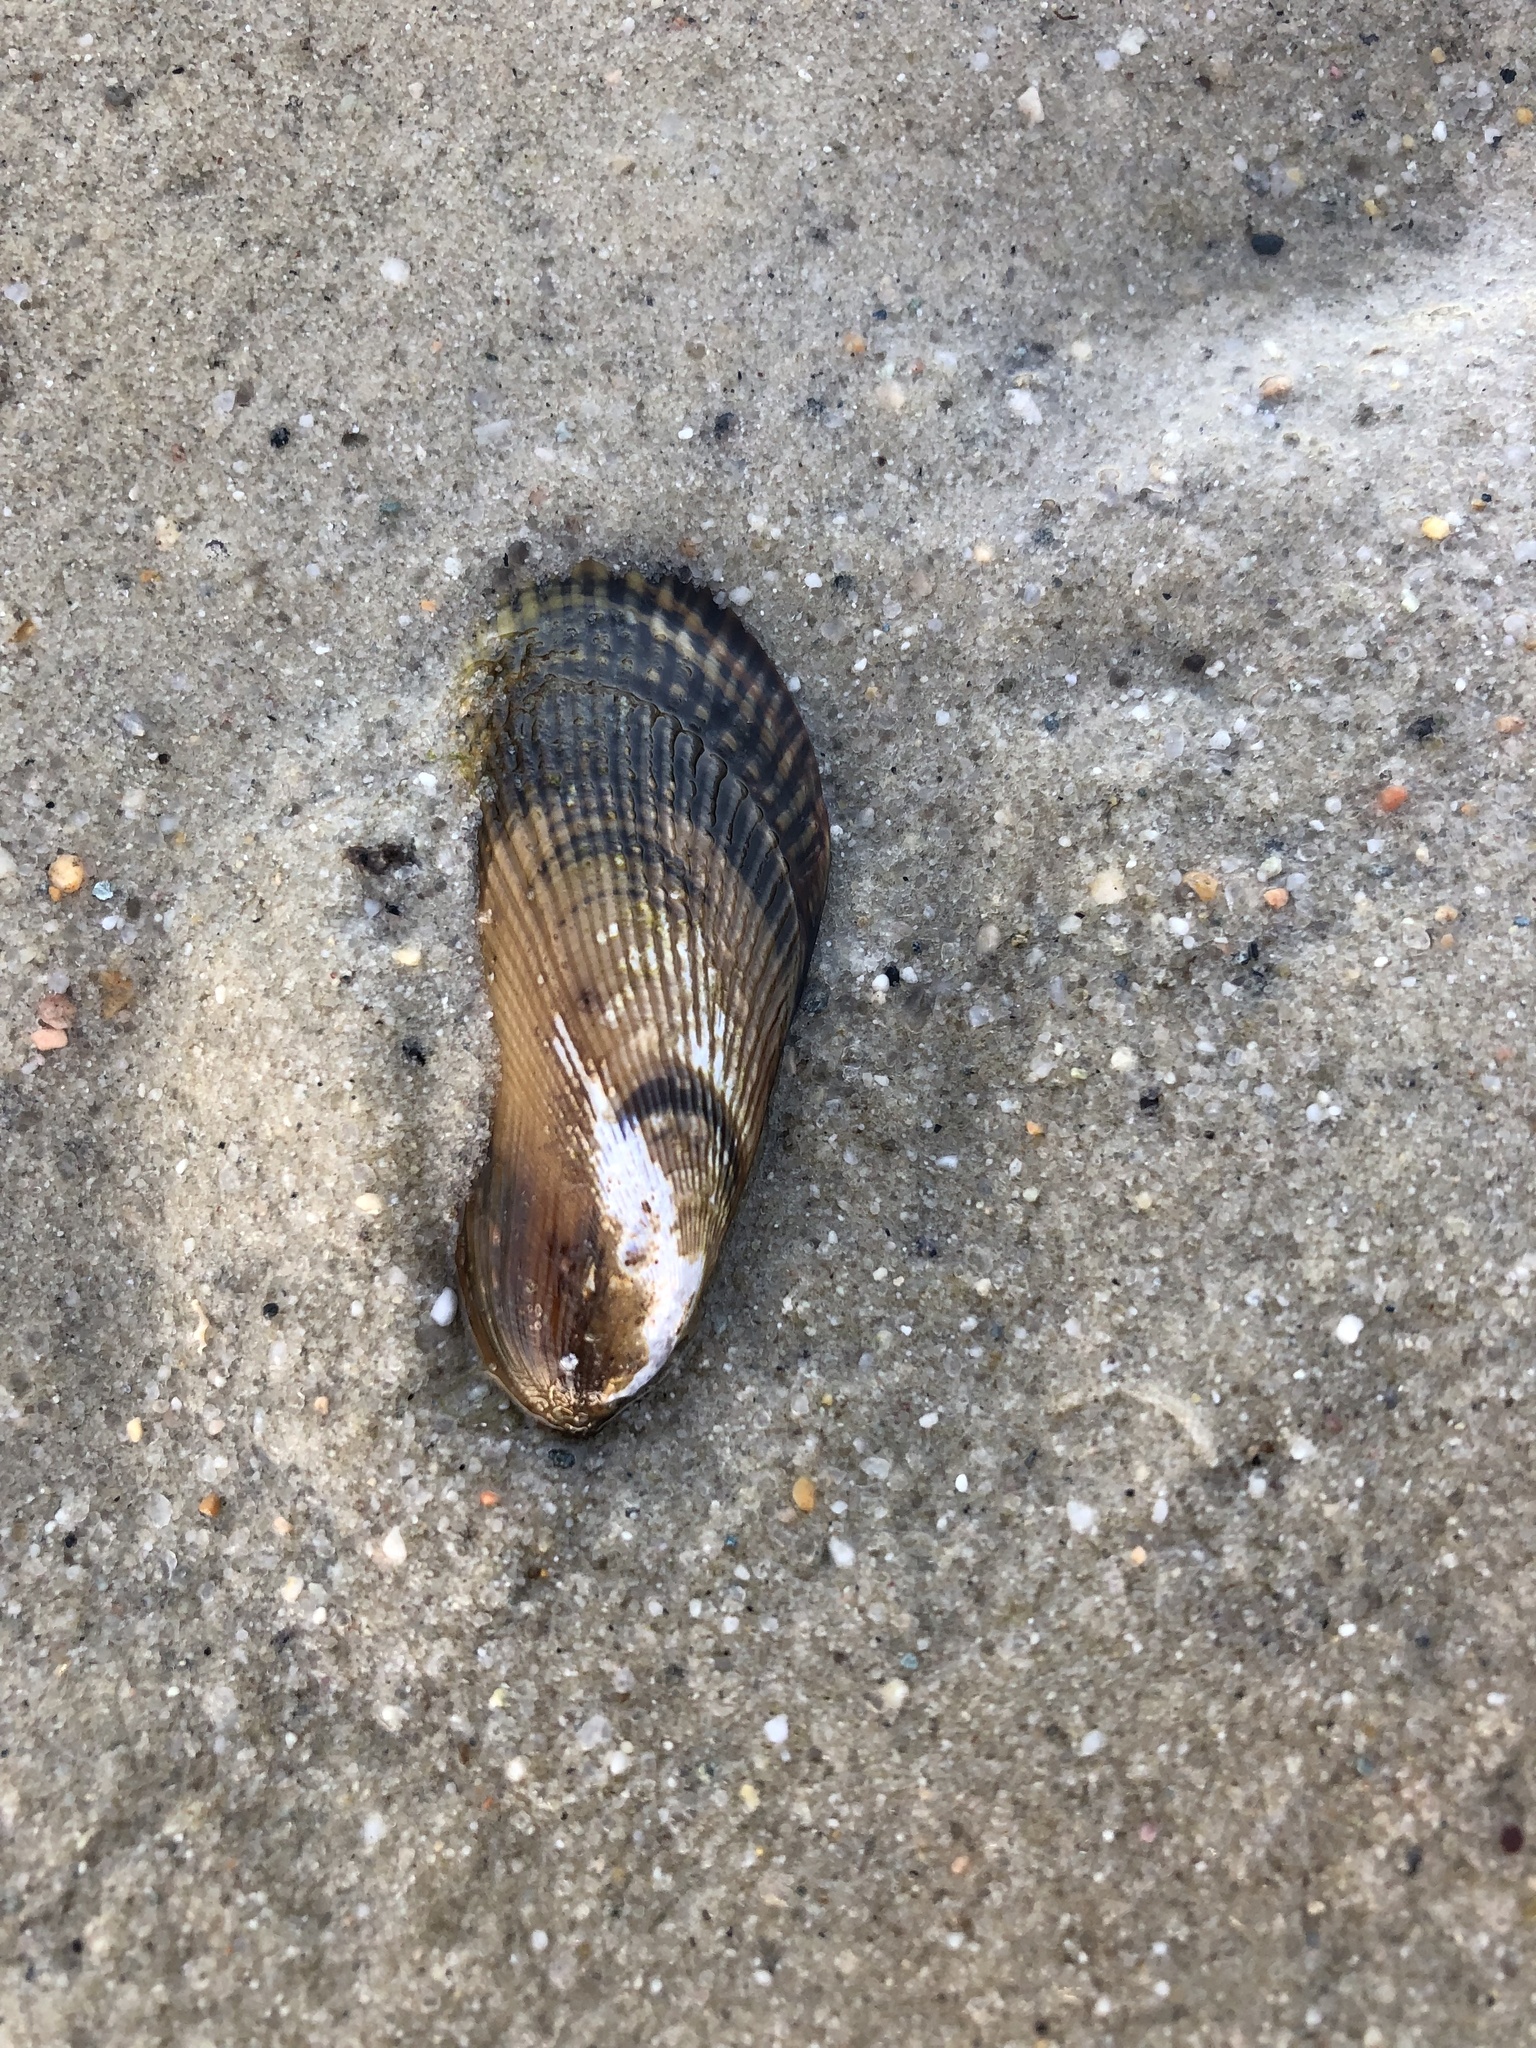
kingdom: Animalia
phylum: Mollusca
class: Bivalvia
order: Mytilida
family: Mytilidae
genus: Geukensia
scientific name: Geukensia demissa
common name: Ribbed mussel
